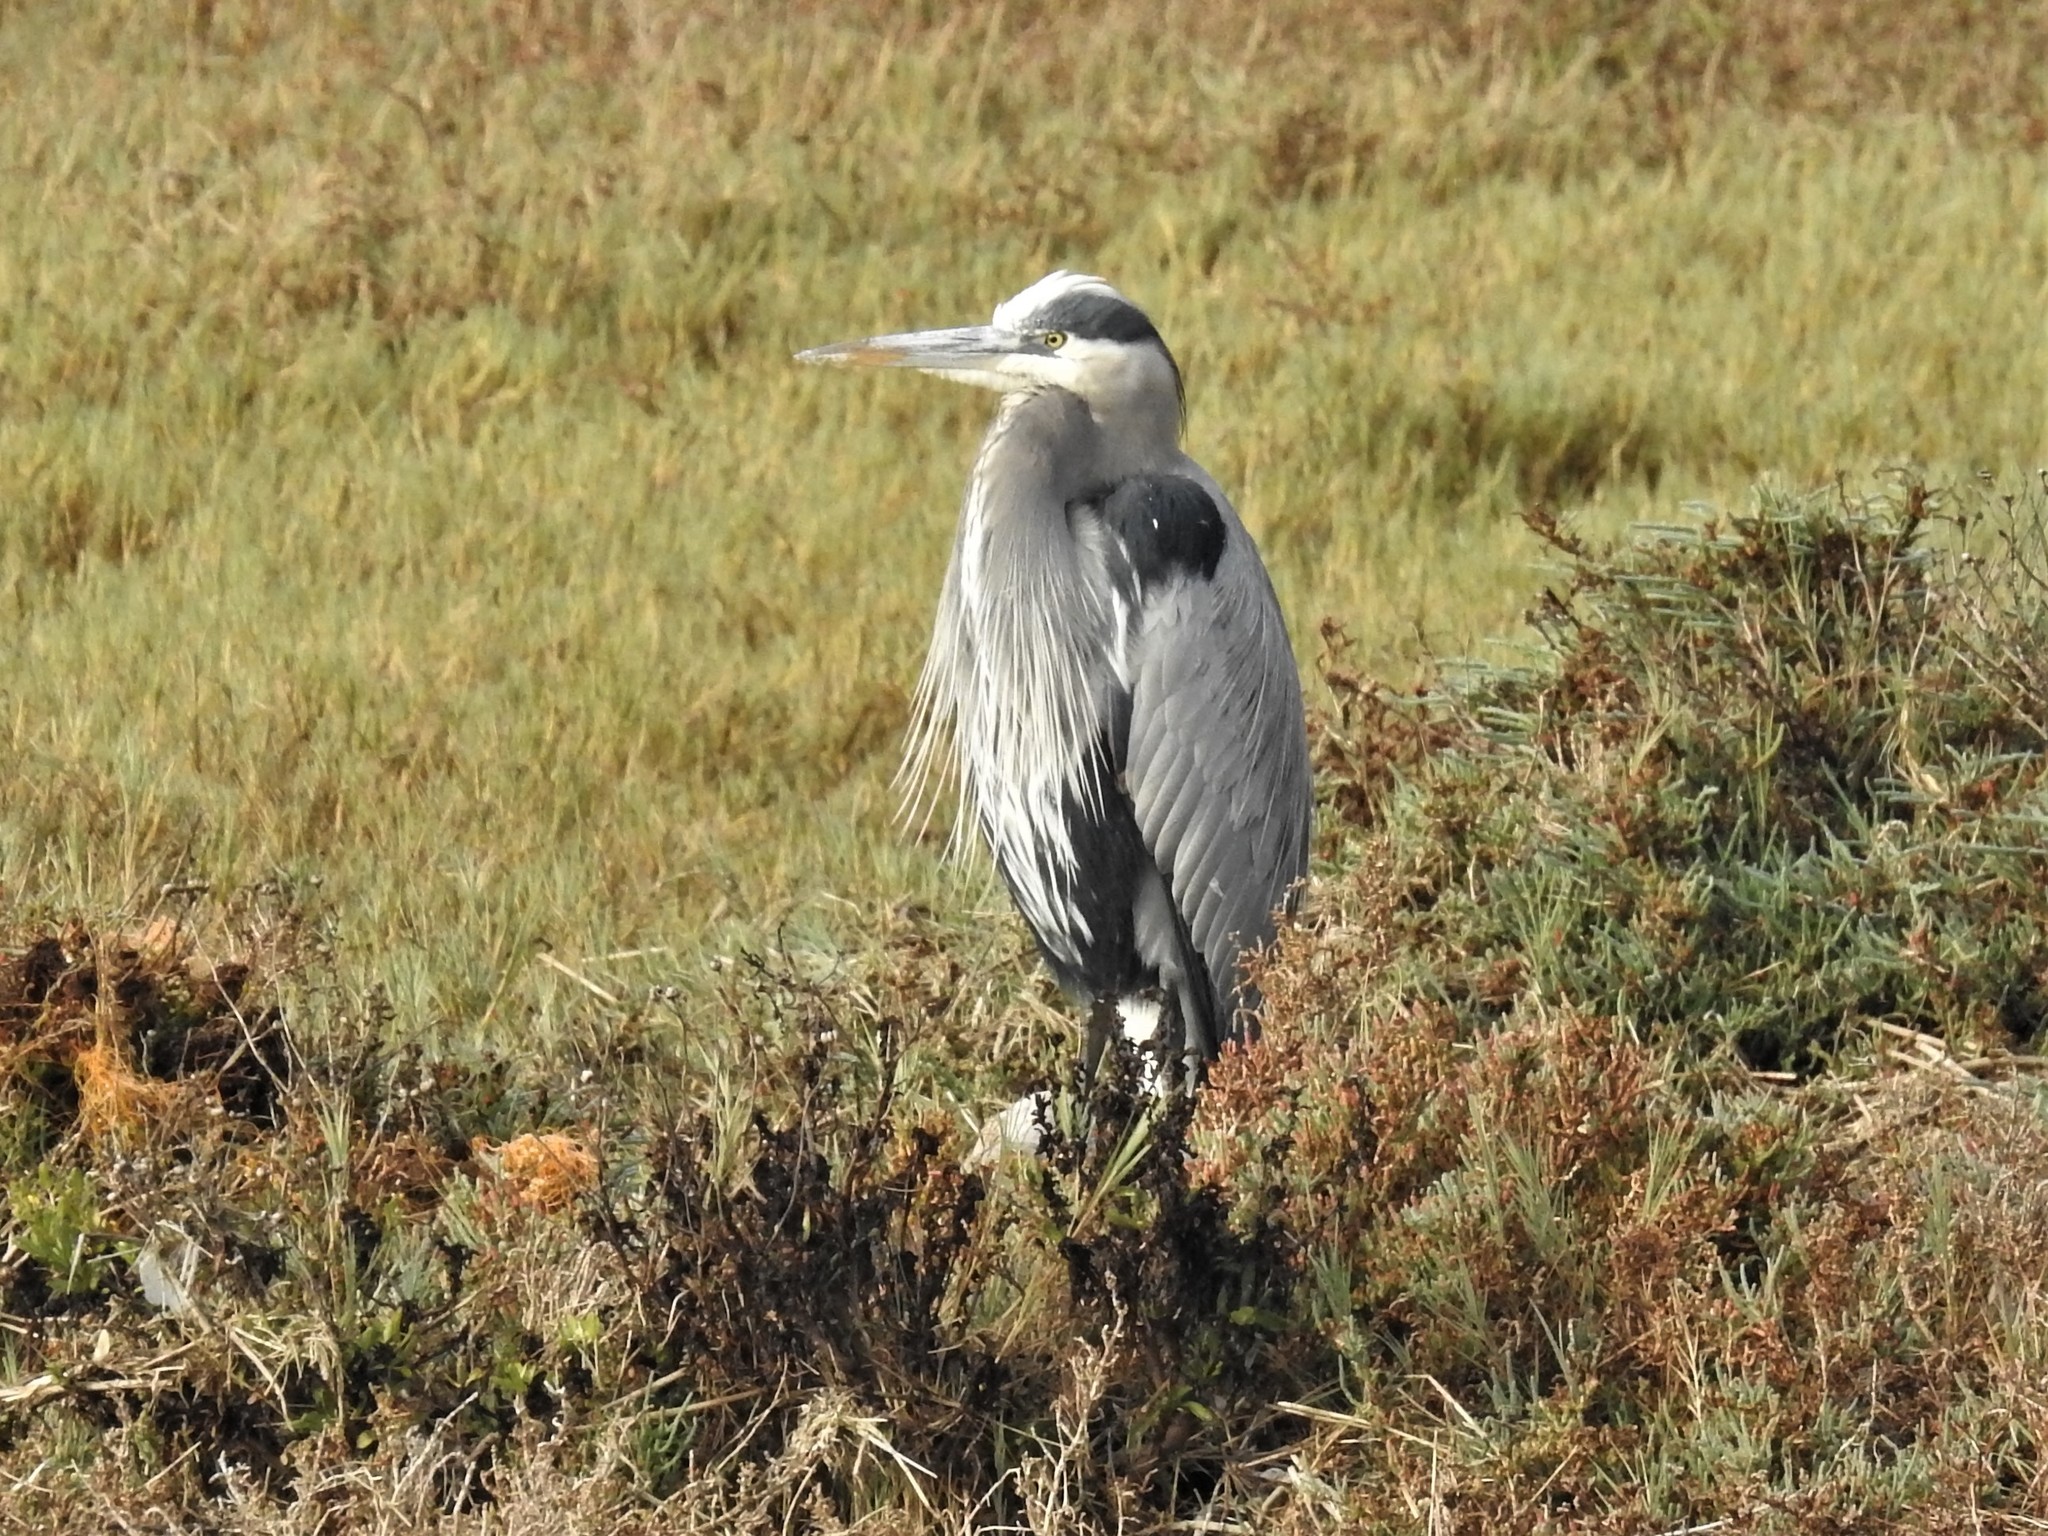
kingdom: Animalia
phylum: Chordata
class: Aves
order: Pelecaniformes
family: Ardeidae
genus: Ardea
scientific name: Ardea herodias
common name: Great blue heron
